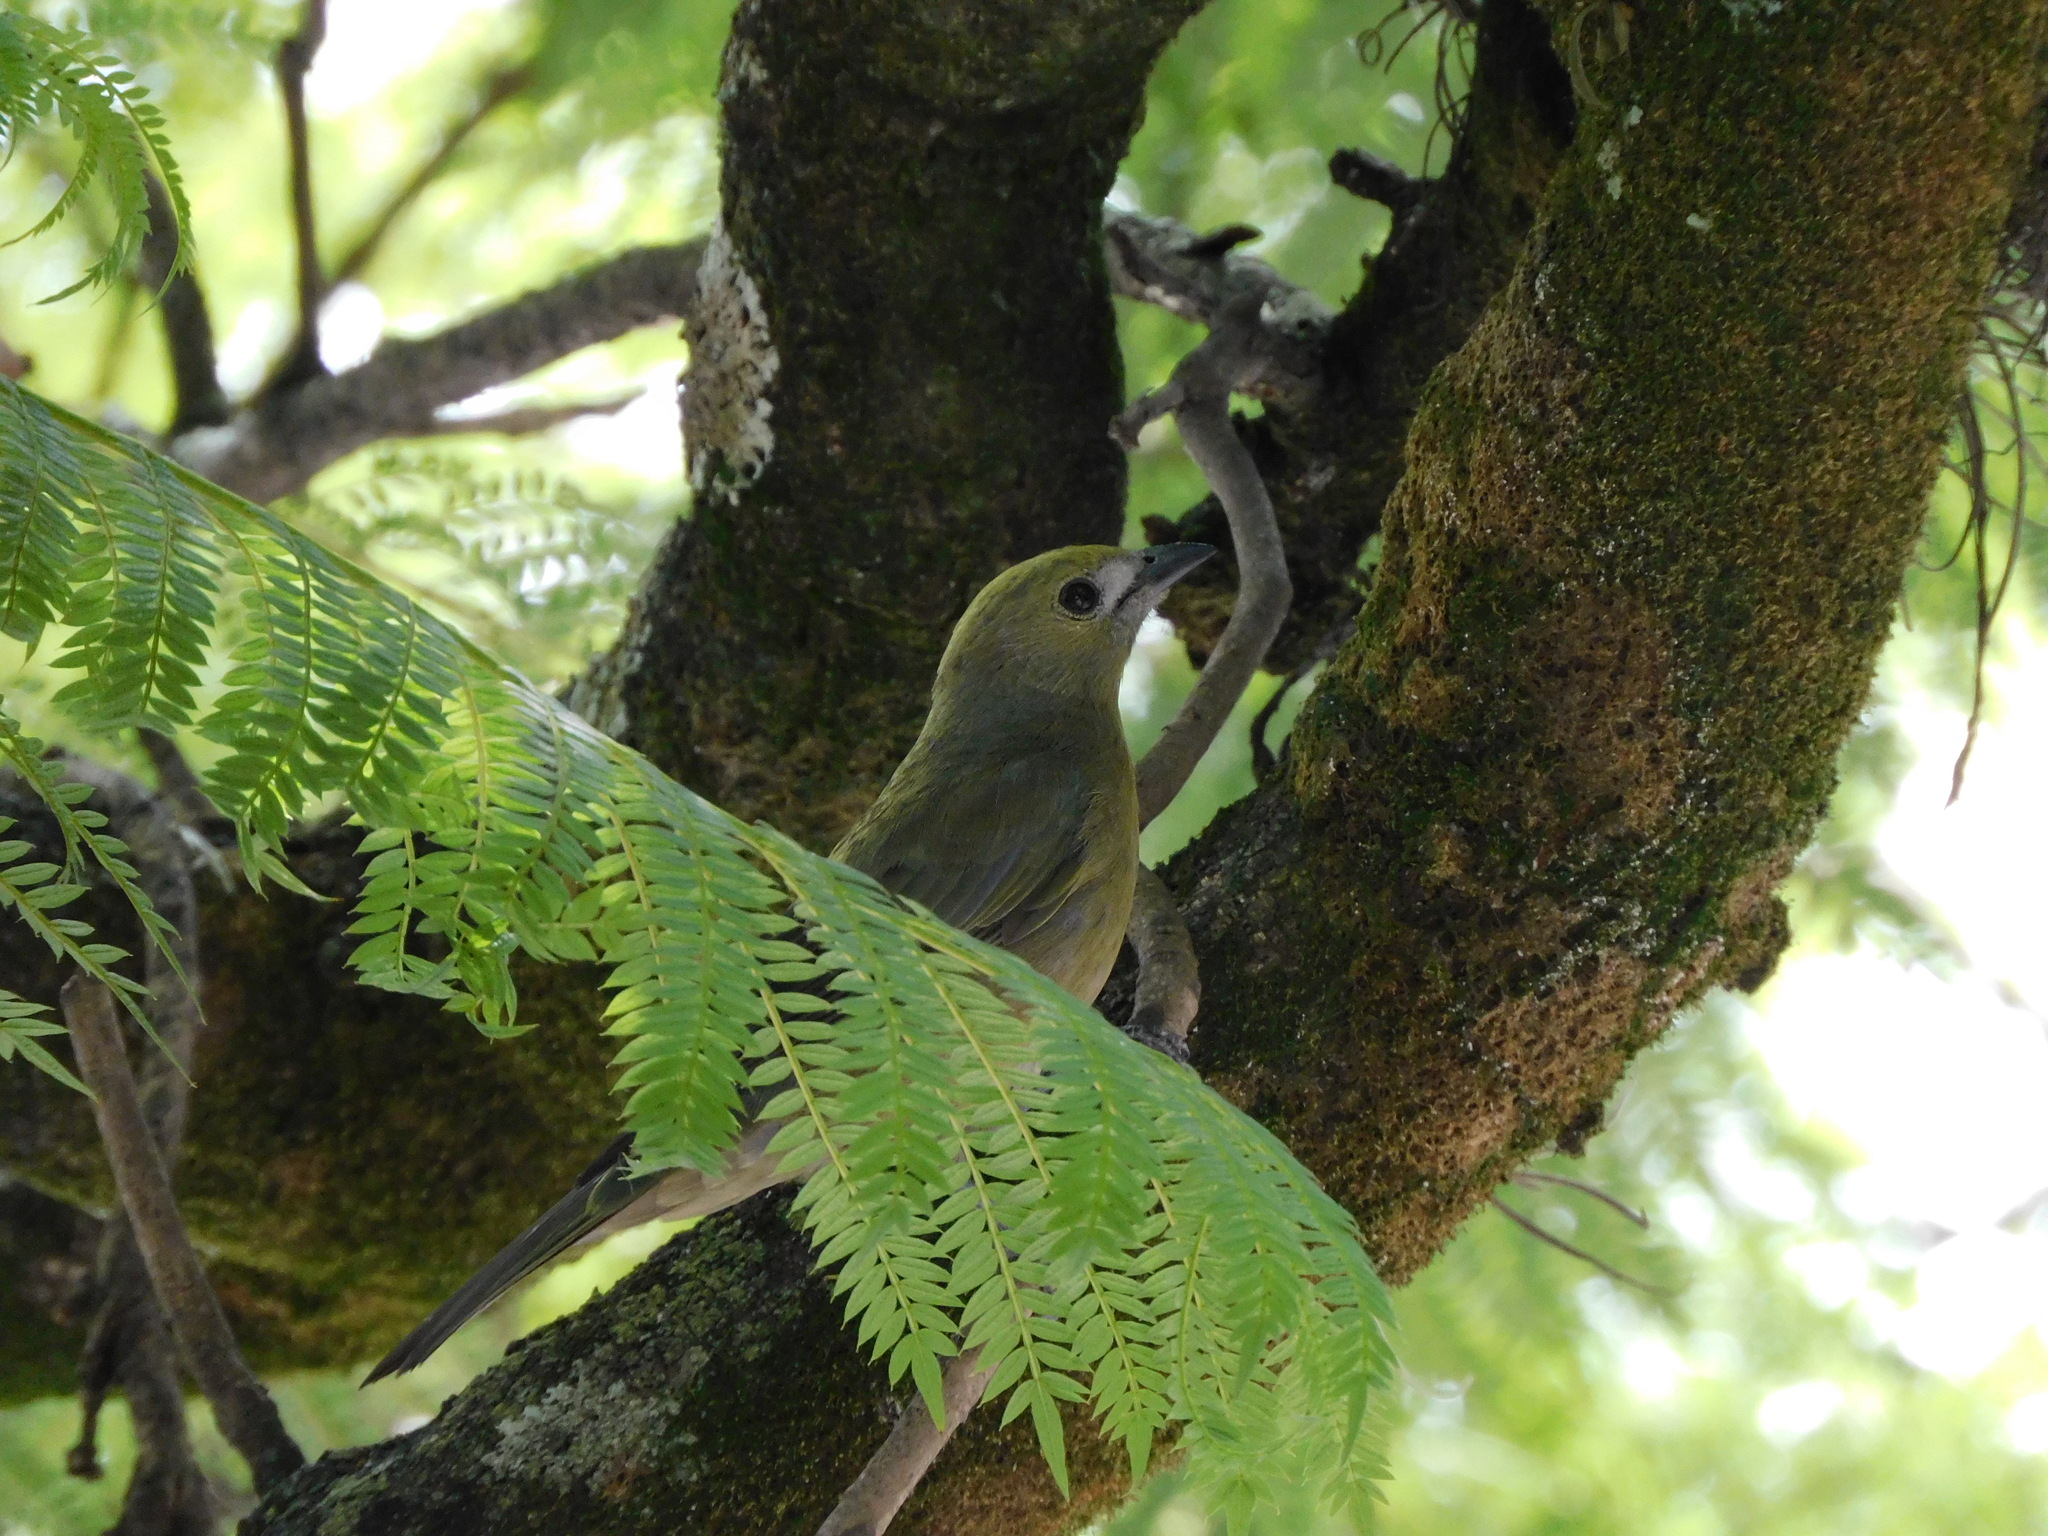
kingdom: Animalia
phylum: Chordata
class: Aves
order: Passeriformes
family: Thraupidae
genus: Thraupis
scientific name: Thraupis palmarum
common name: Palm tanager
